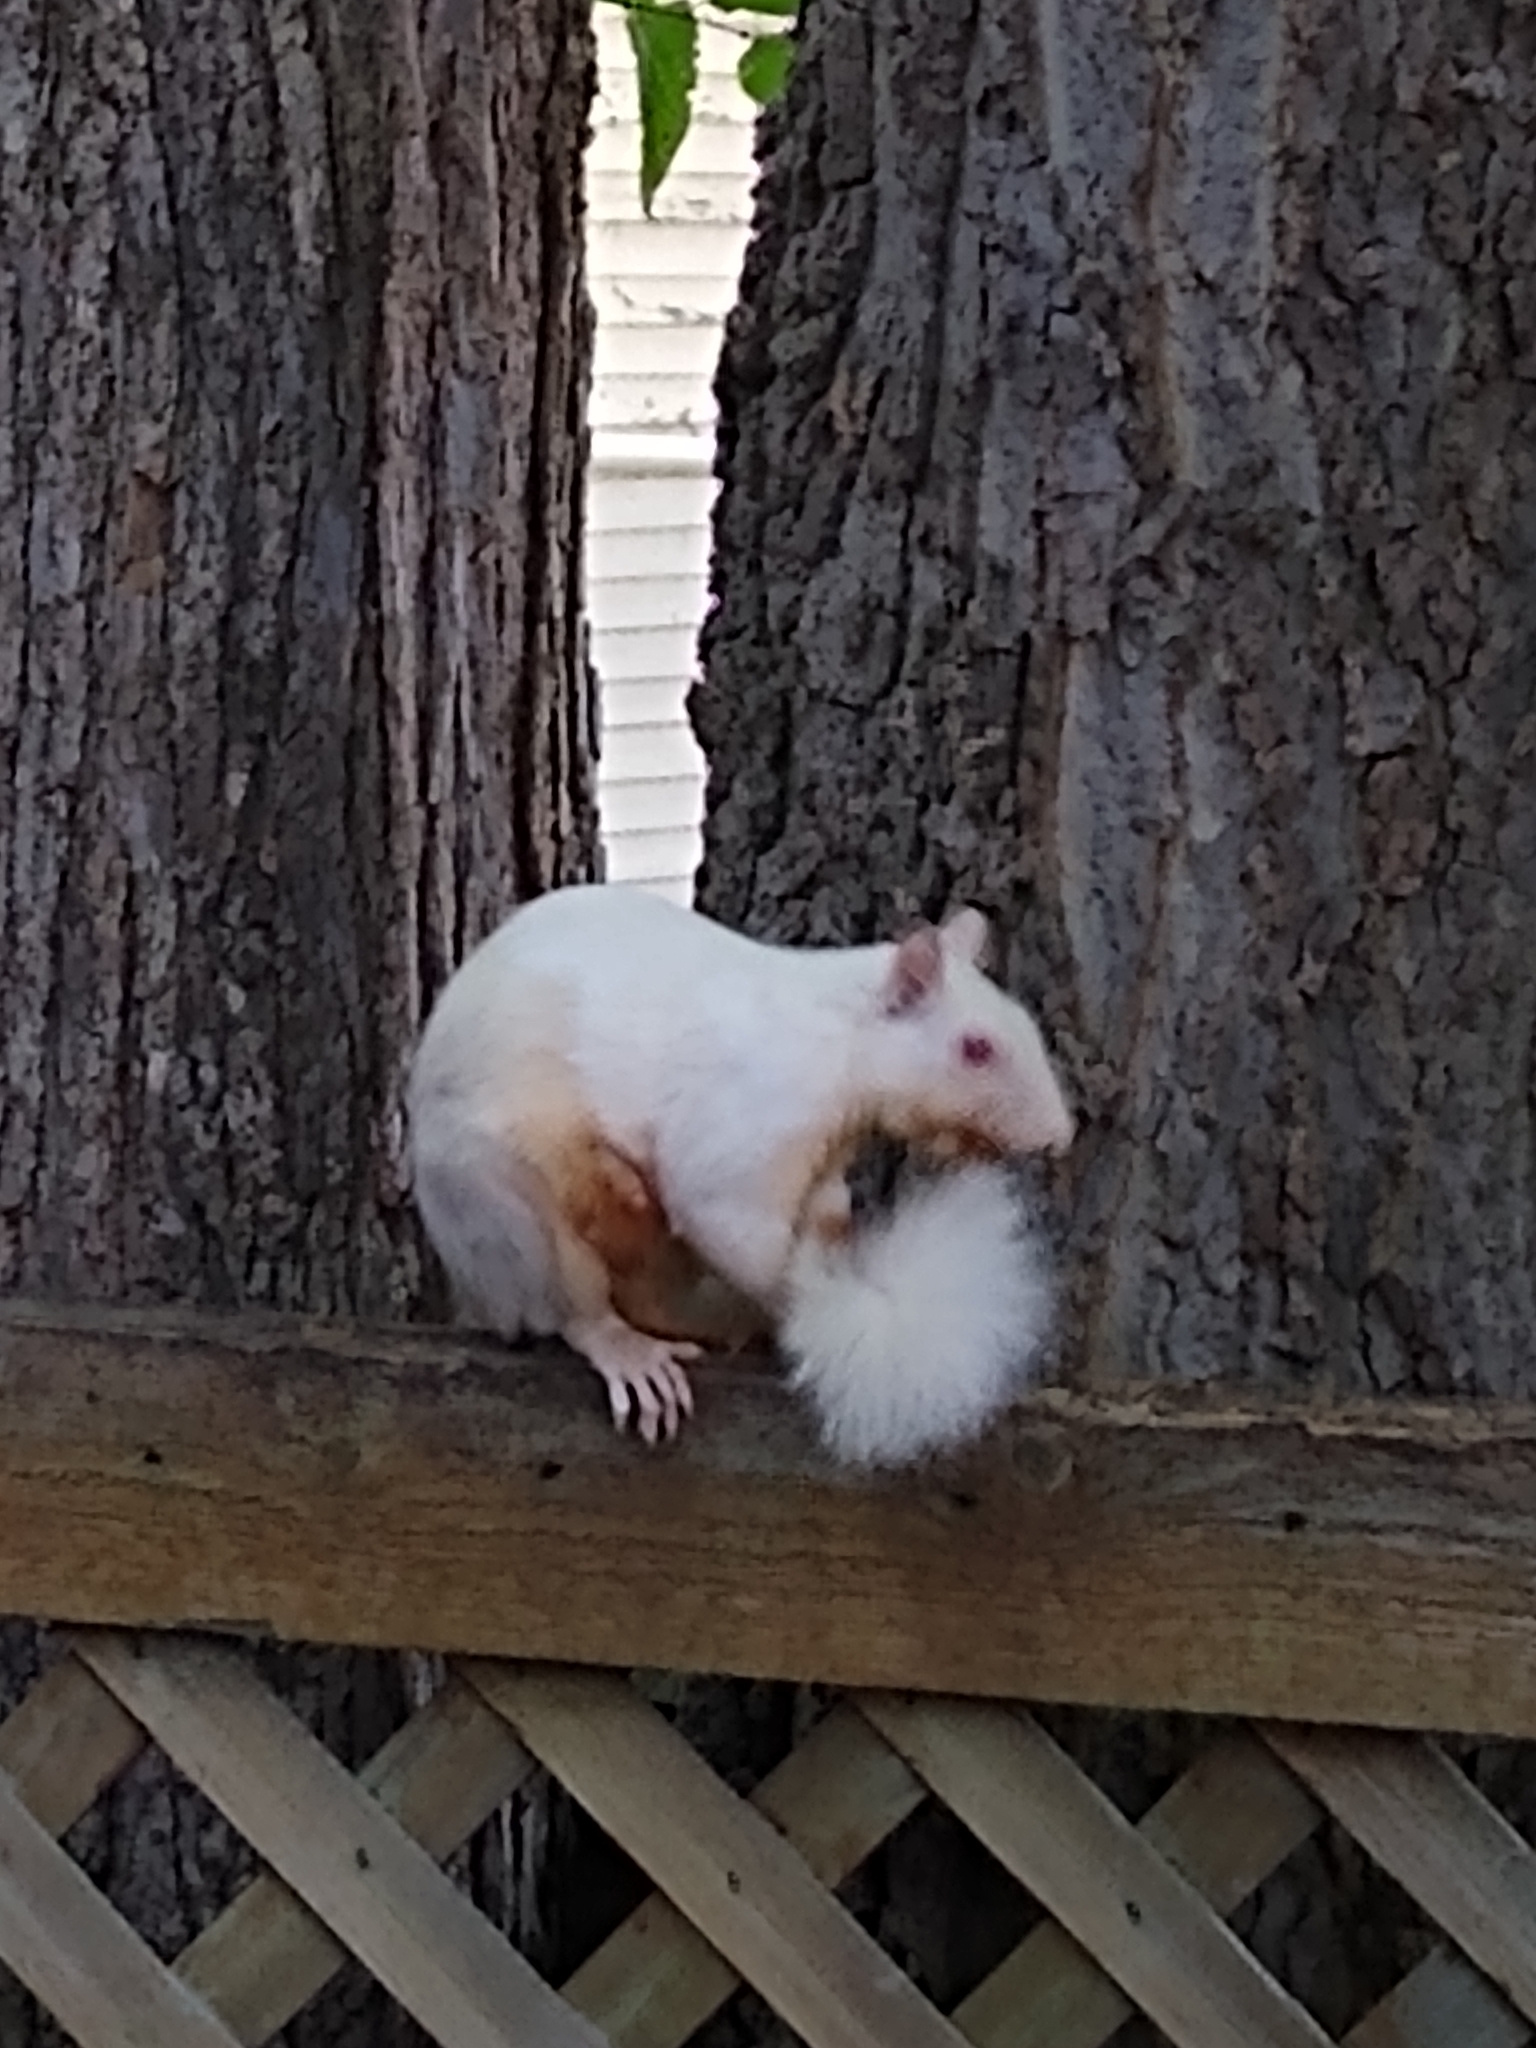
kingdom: Animalia
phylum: Chordata
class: Mammalia
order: Rodentia
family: Sciuridae
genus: Sciurus
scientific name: Sciurus carolinensis
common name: Eastern gray squirrel
